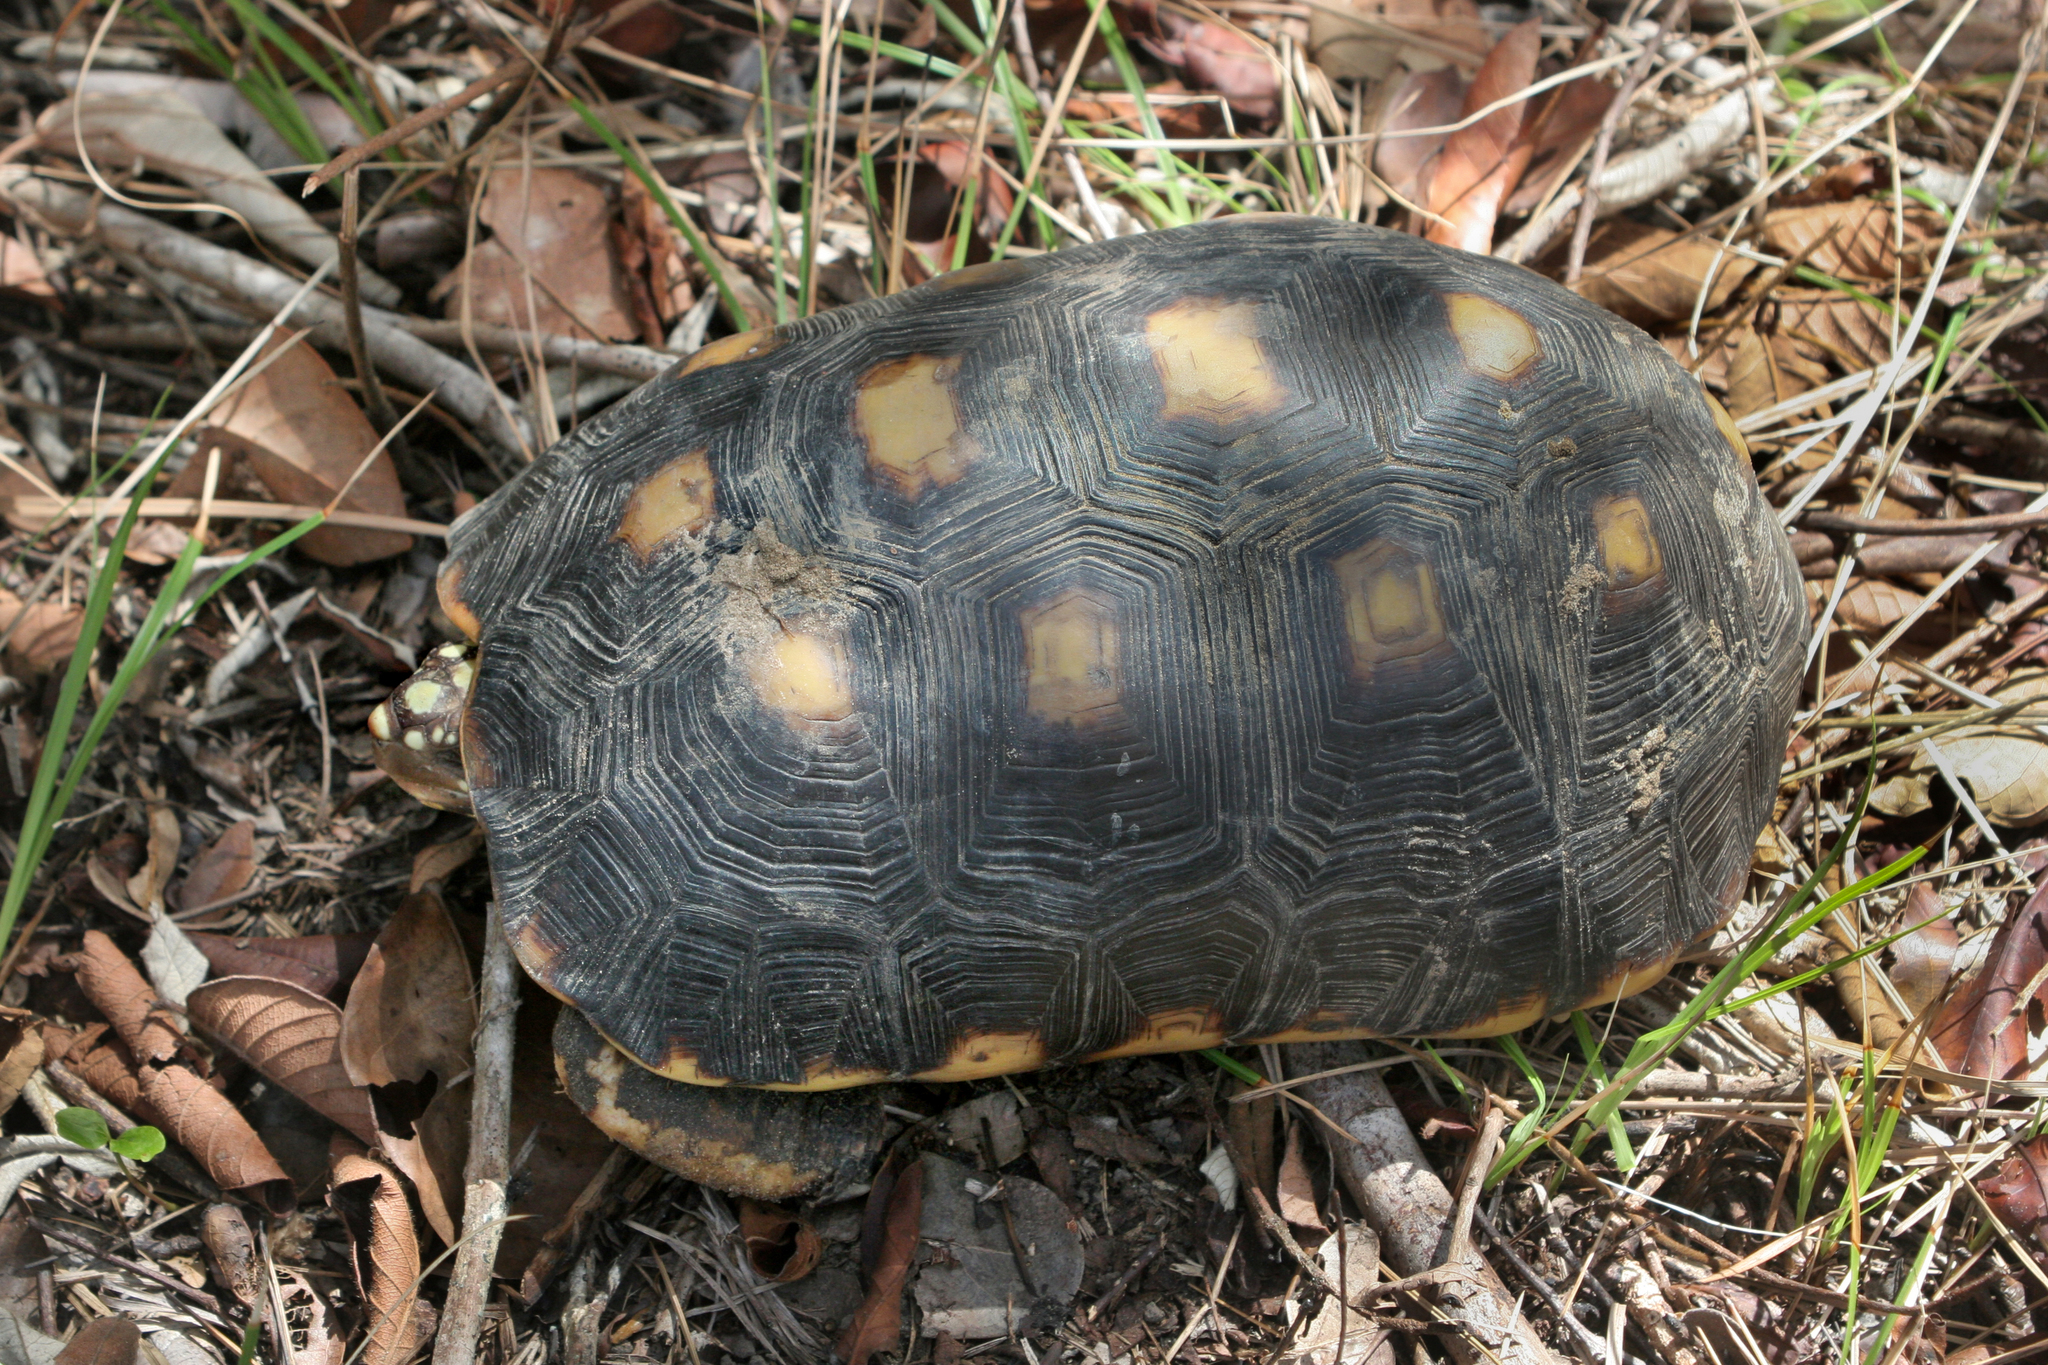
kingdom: Animalia
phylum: Chordata
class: Testudines
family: Testudinidae
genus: Chelonoidis
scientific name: Chelonoidis carbonarius
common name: Red-footed tortoise
